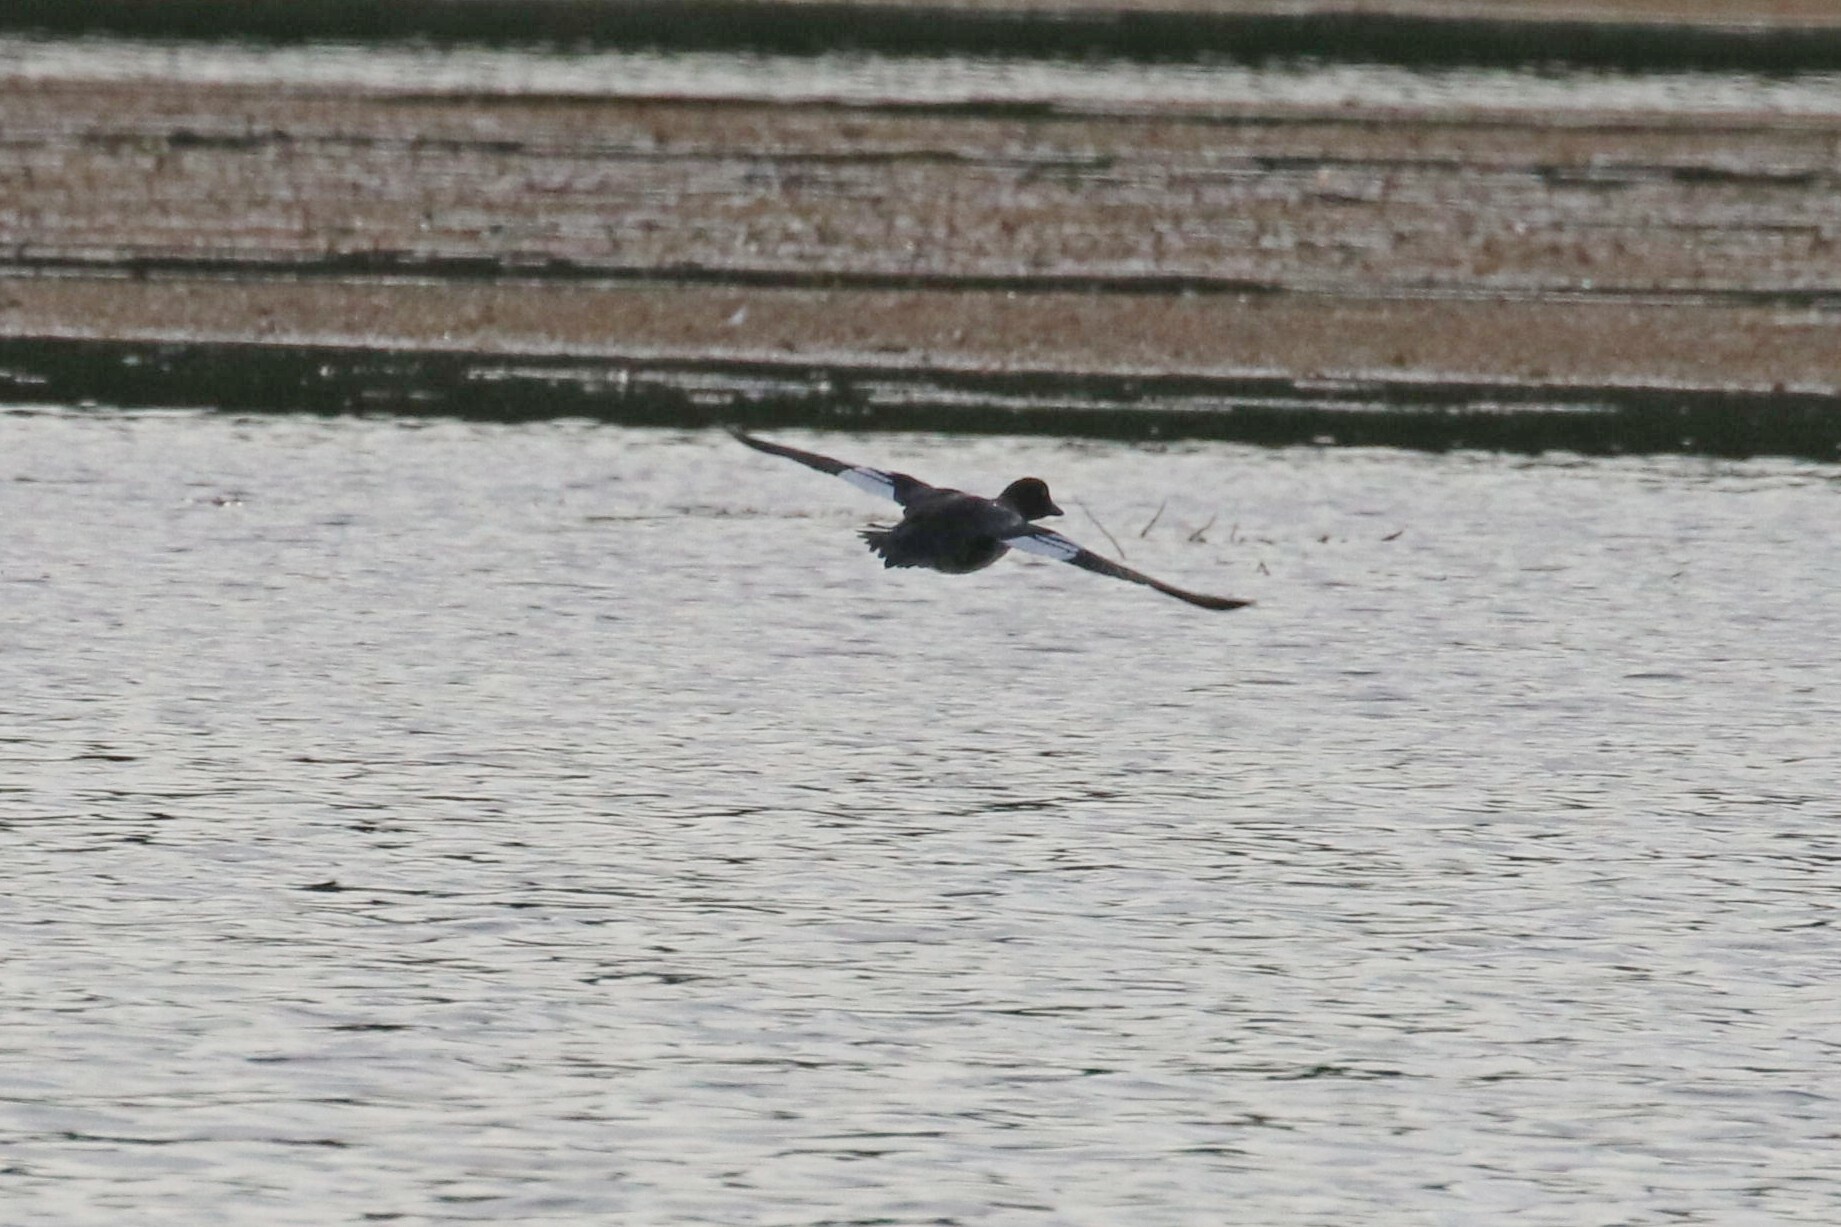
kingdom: Animalia
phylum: Chordata
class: Aves
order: Anseriformes
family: Anatidae
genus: Bucephala
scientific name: Bucephala clangula
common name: Common goldeneye
